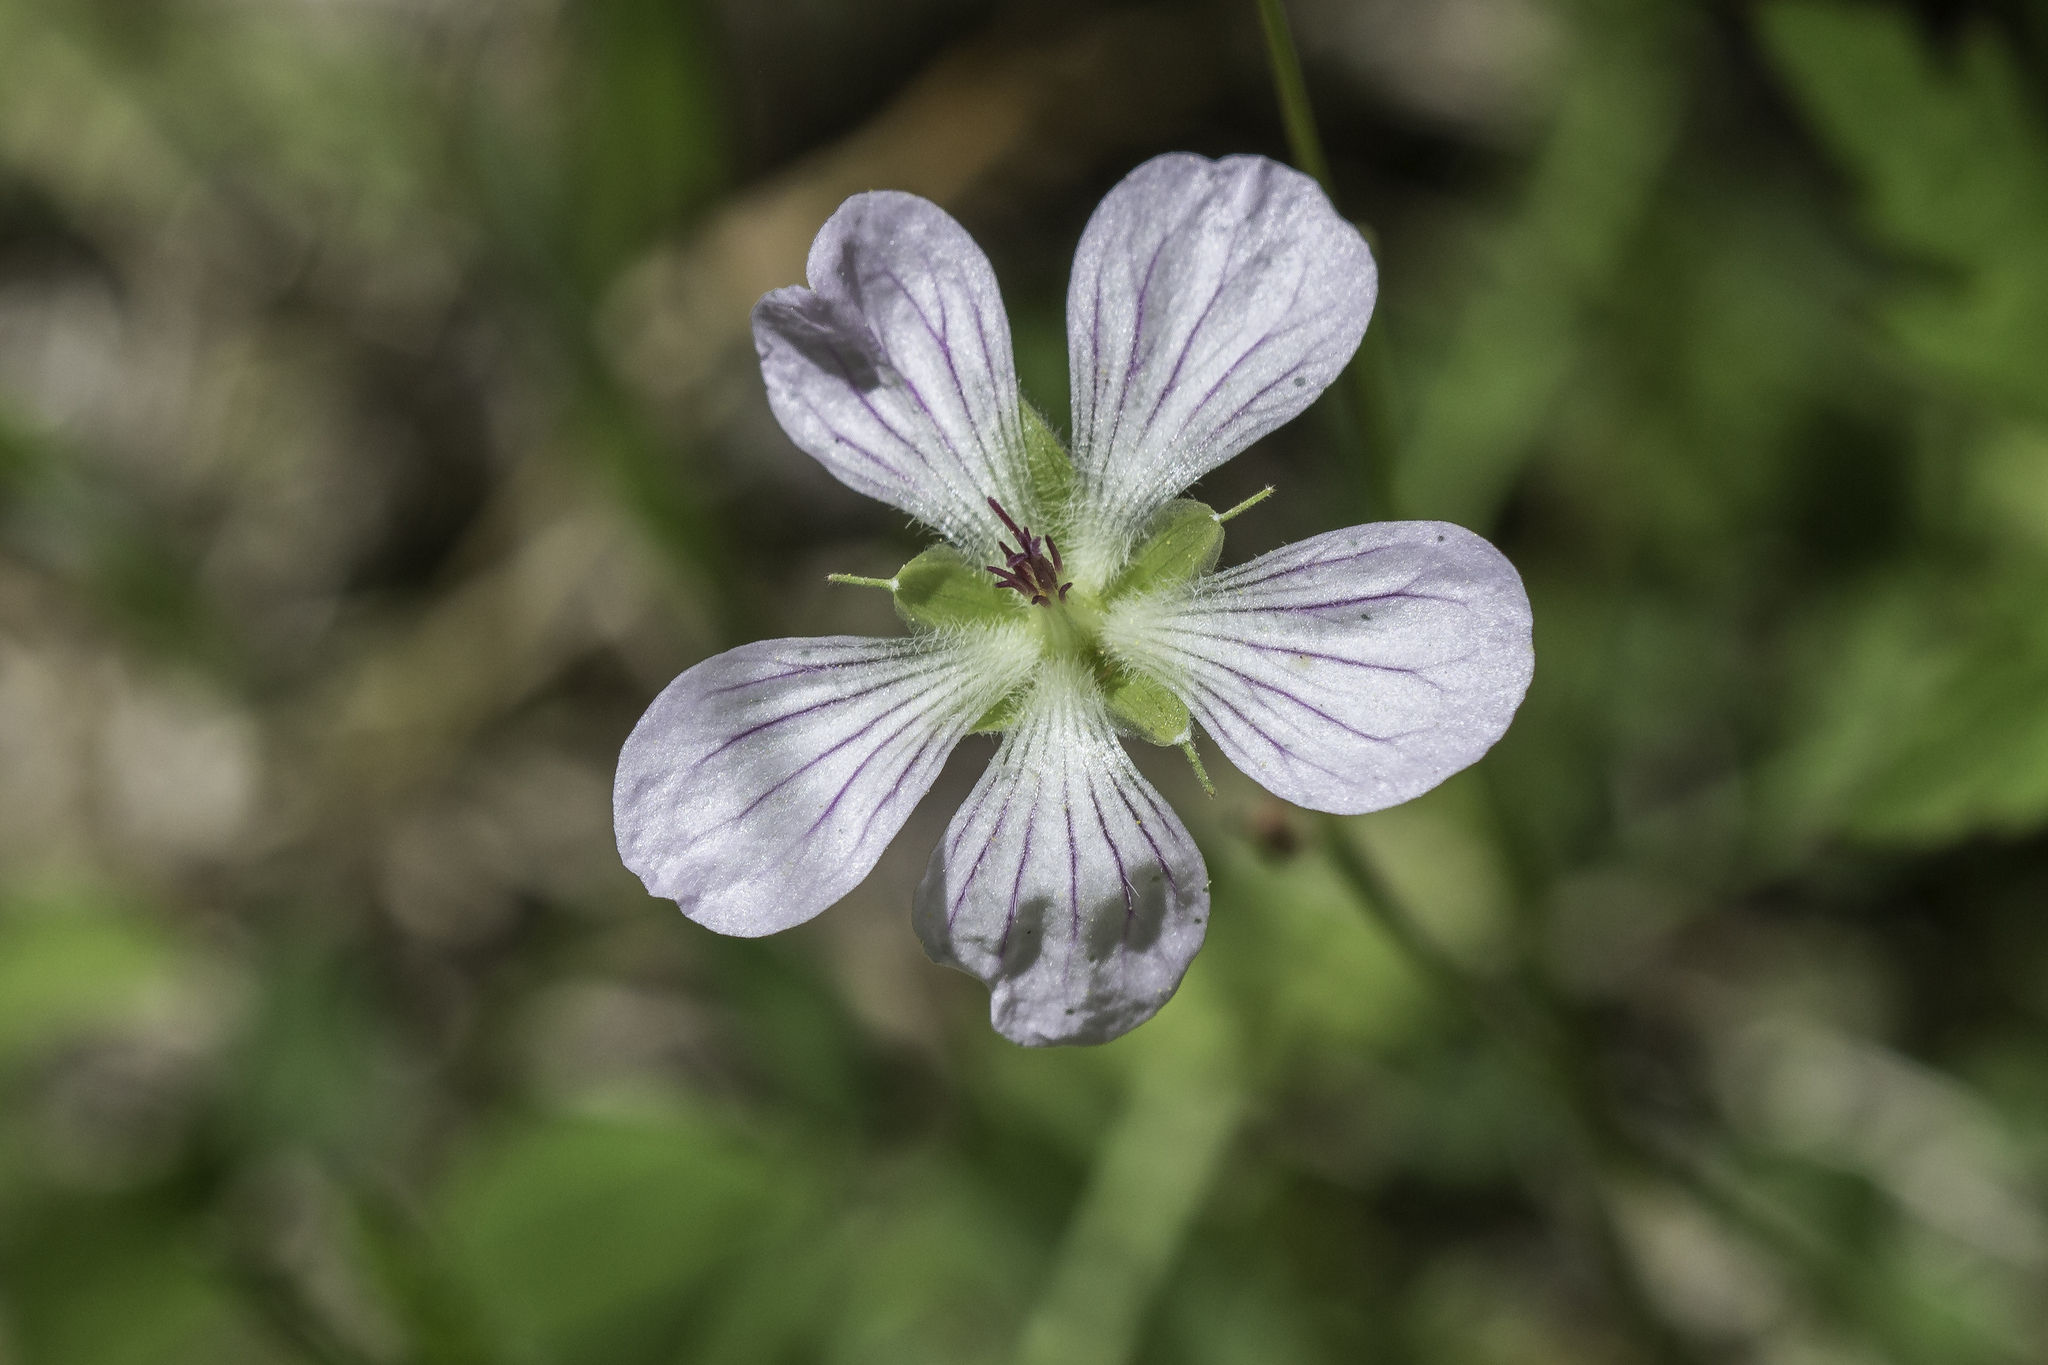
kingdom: Plantae
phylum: Tracheophyta
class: Magnoliopsida
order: Geraniales
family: Geraniaceae
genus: Geranium
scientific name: Geranium richardsonii
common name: Richardson's crane's-bill
